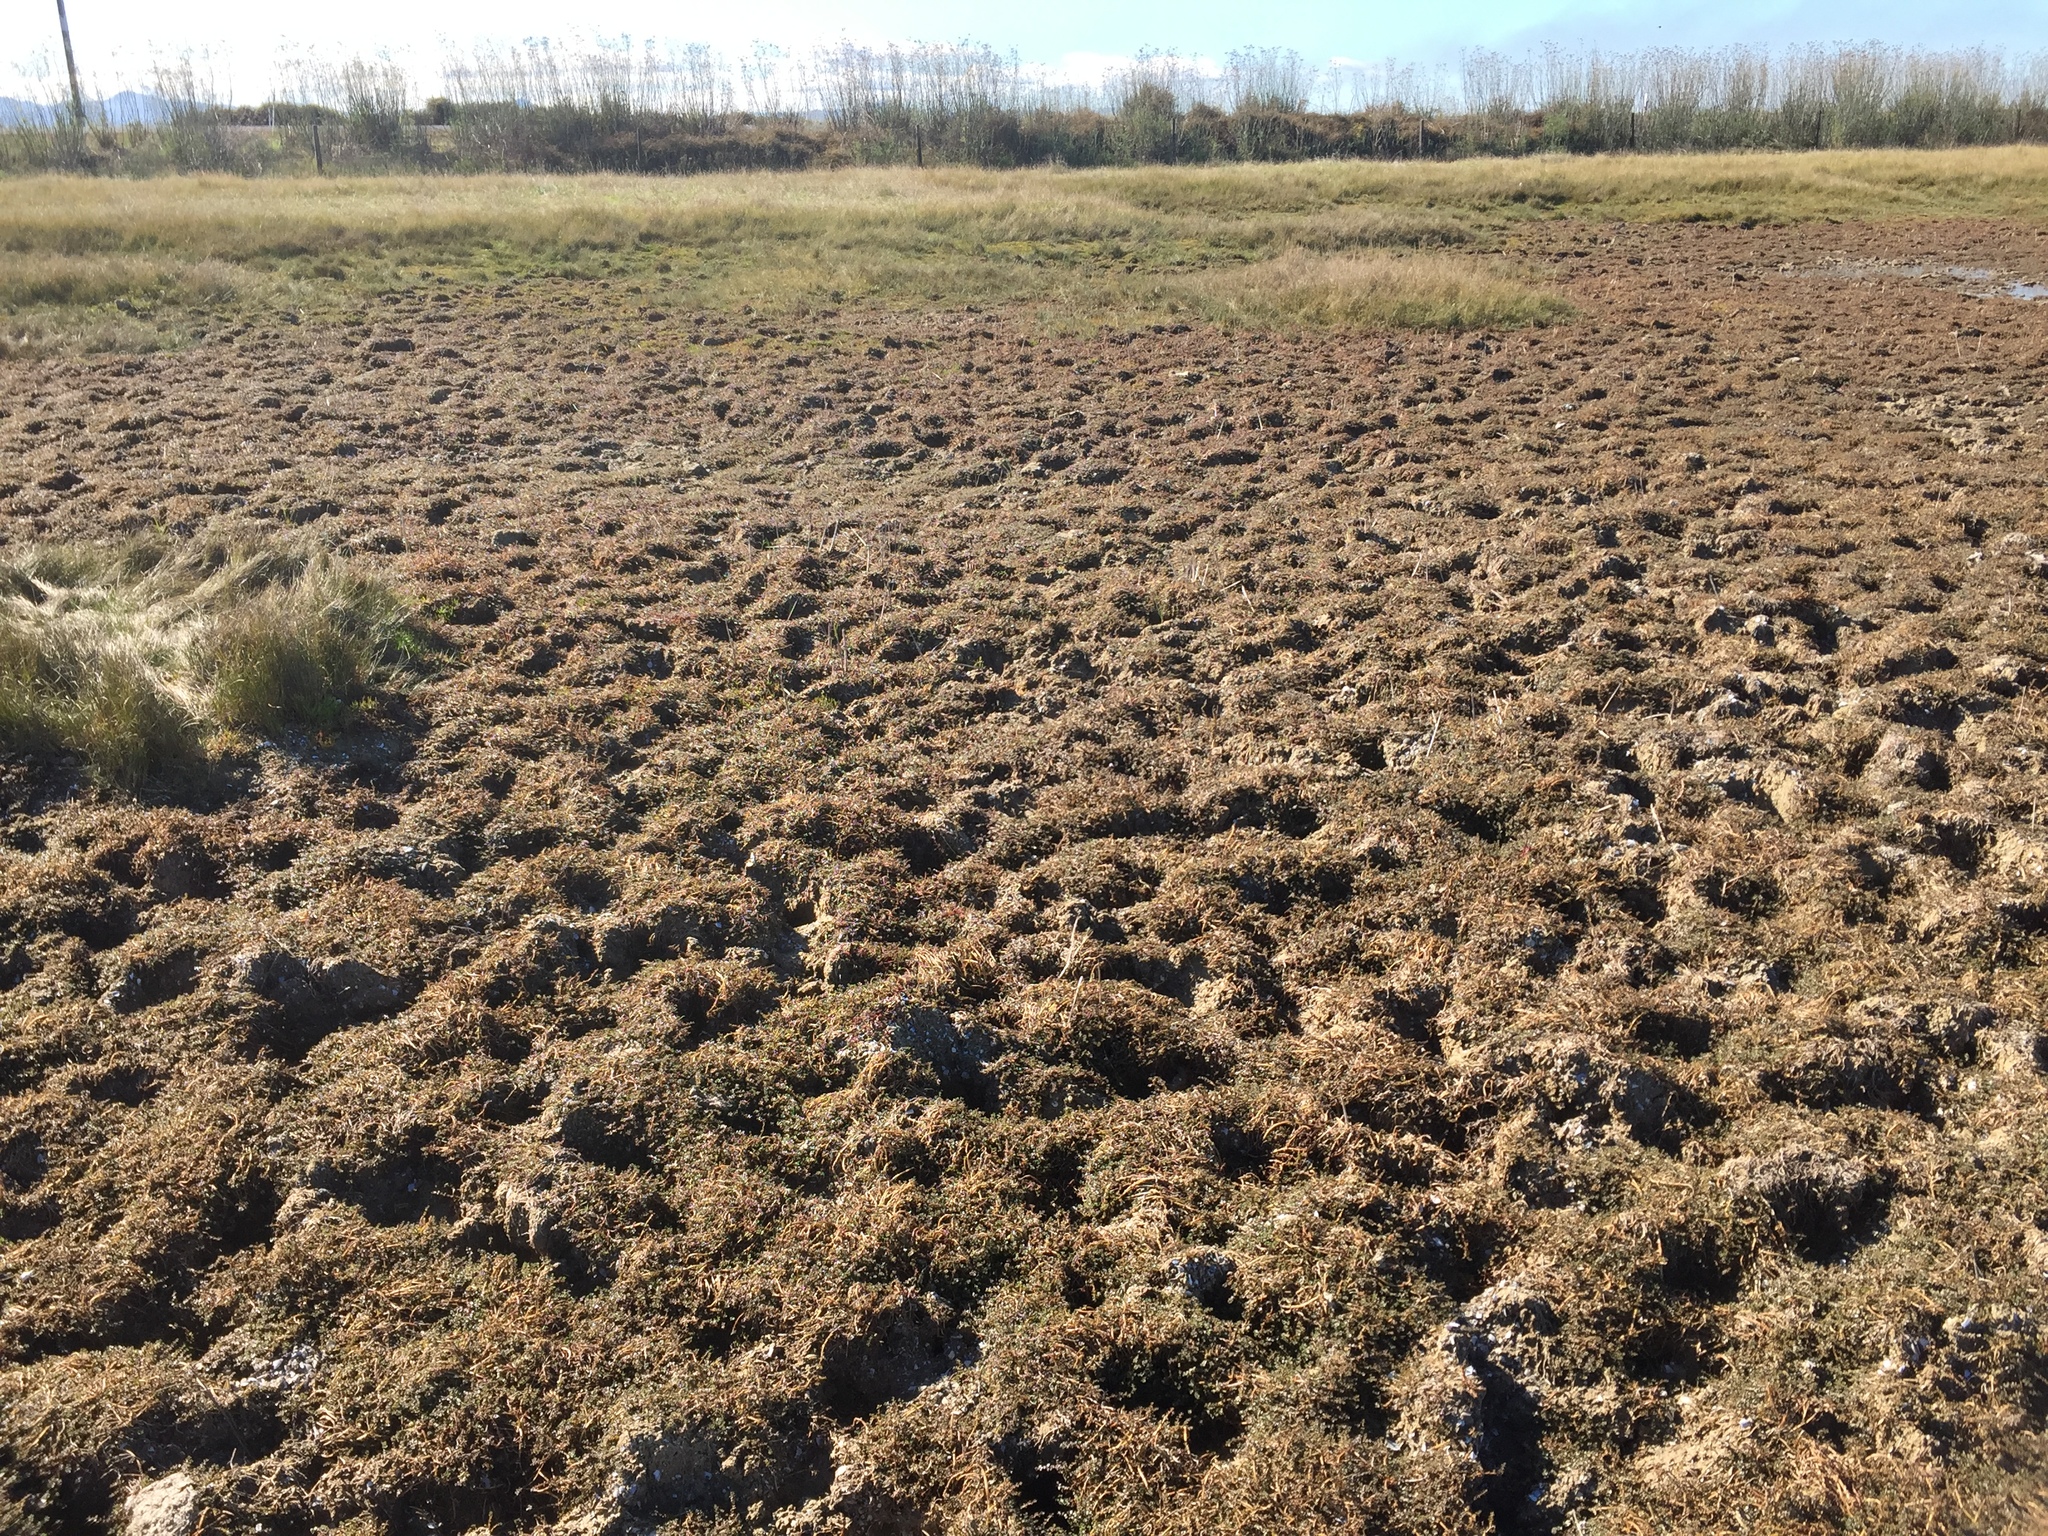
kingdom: Plantae
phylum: Tracheophyta
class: Magnoliopsida
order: Lamiales
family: Phrymaceae
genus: Thyridia
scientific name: Thyridia repens
